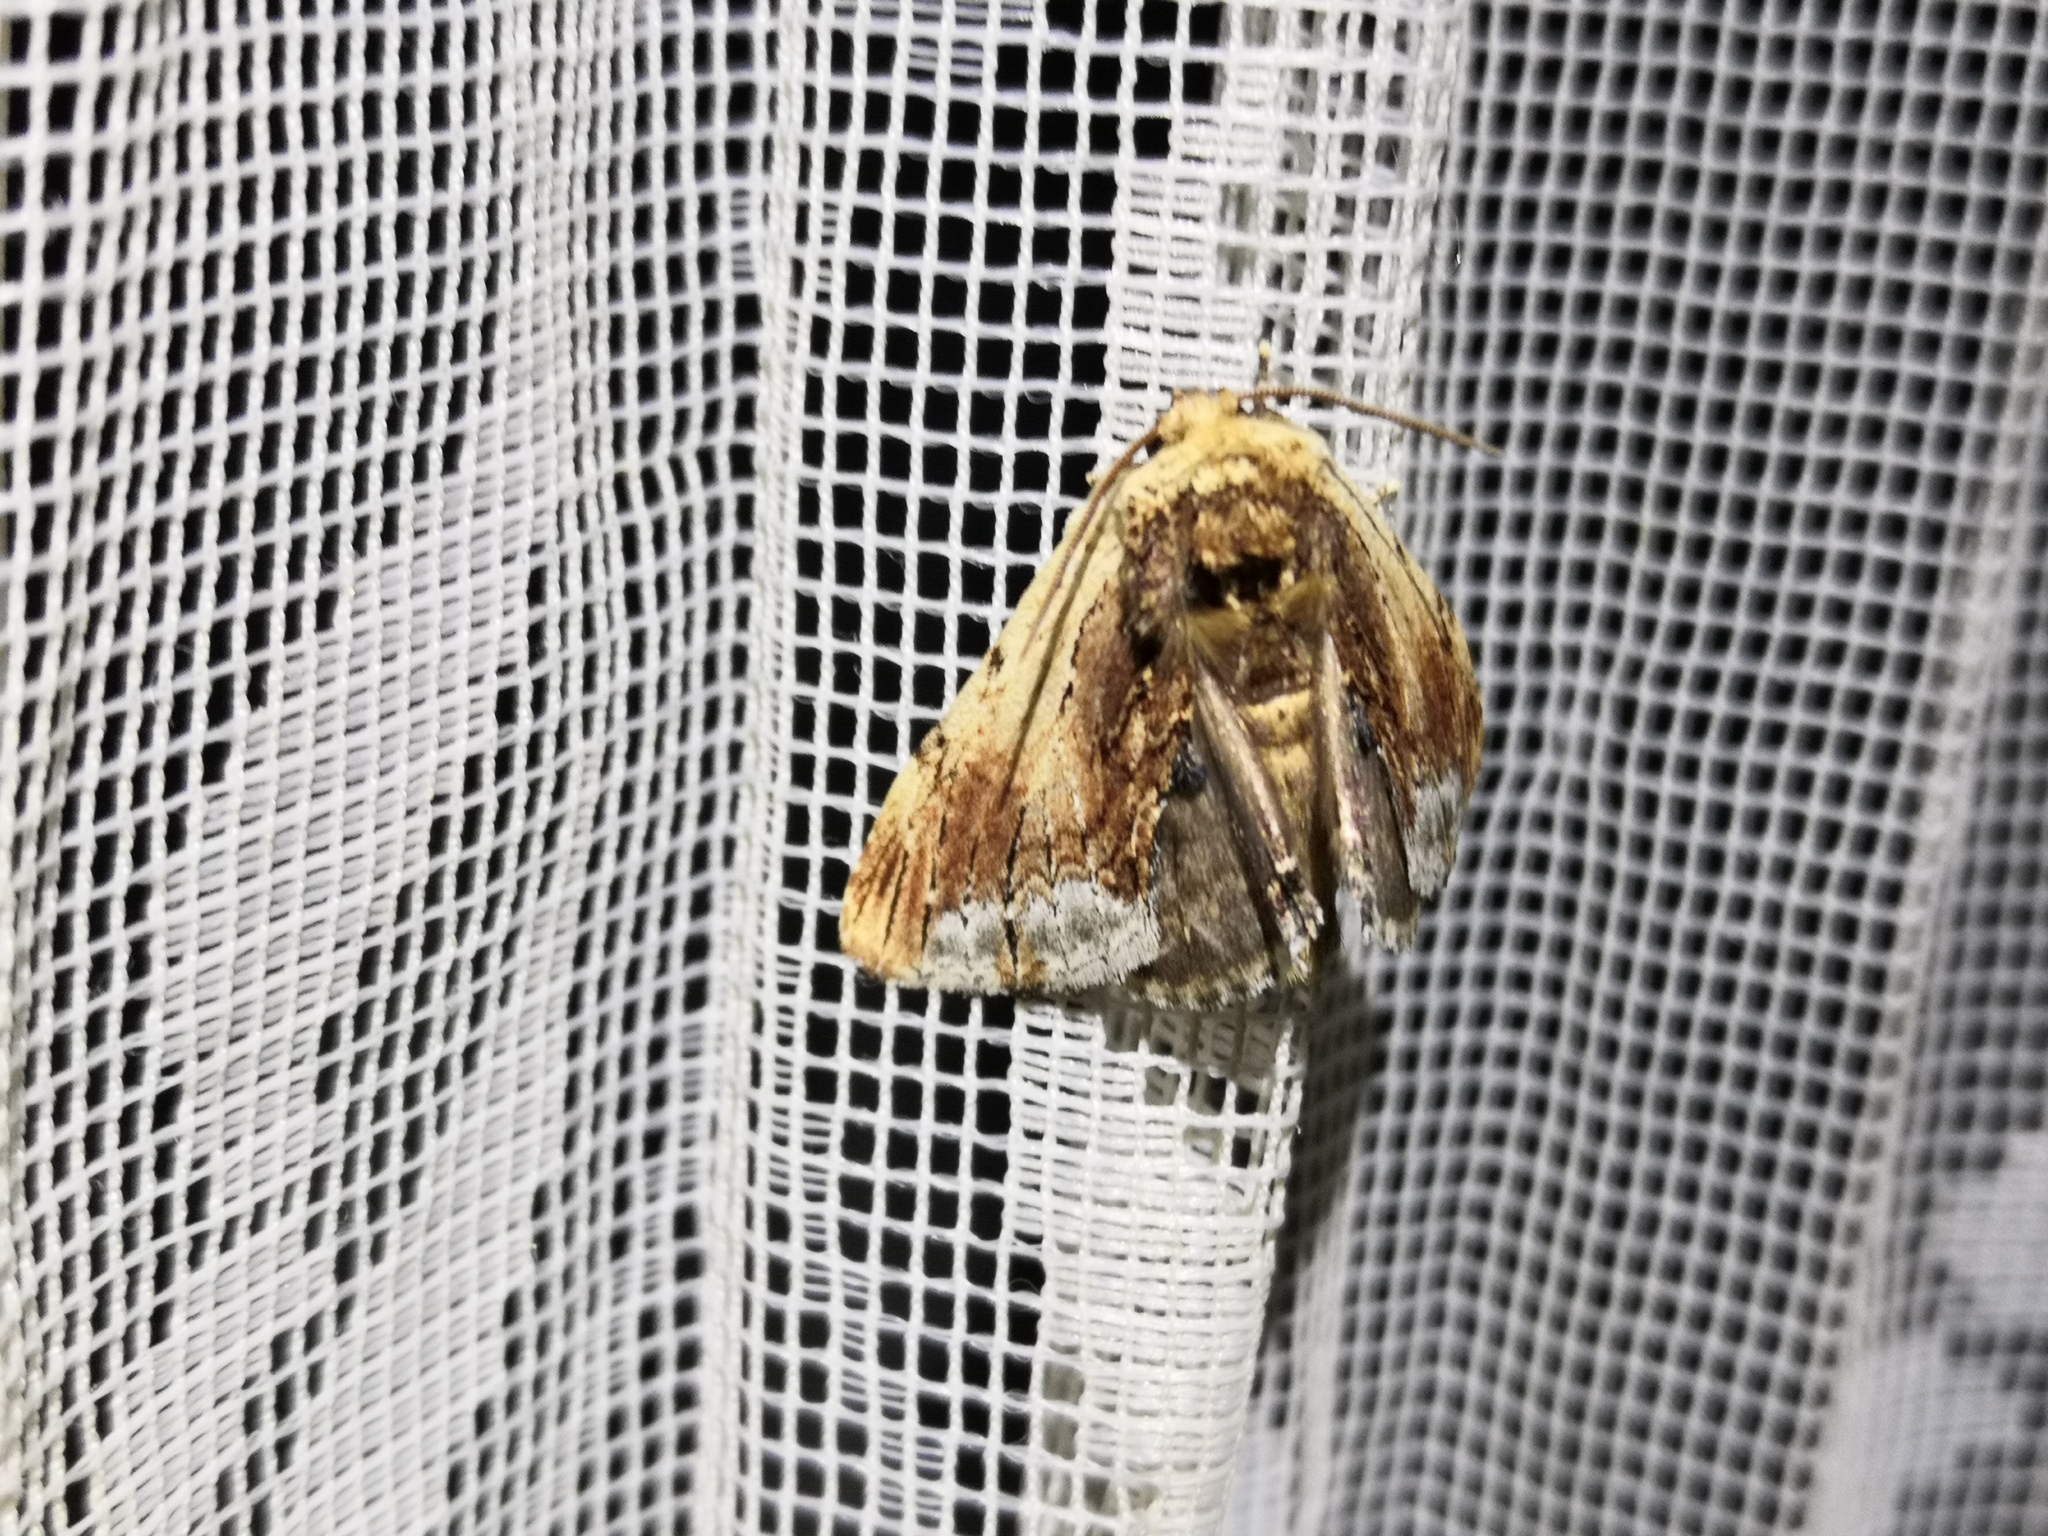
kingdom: Animalia
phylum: Arthropoda
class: Insecta
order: Lepidoptera
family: Notodontidae
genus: Ptilodon
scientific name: Ptilodon cucullina
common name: Maple prominent
